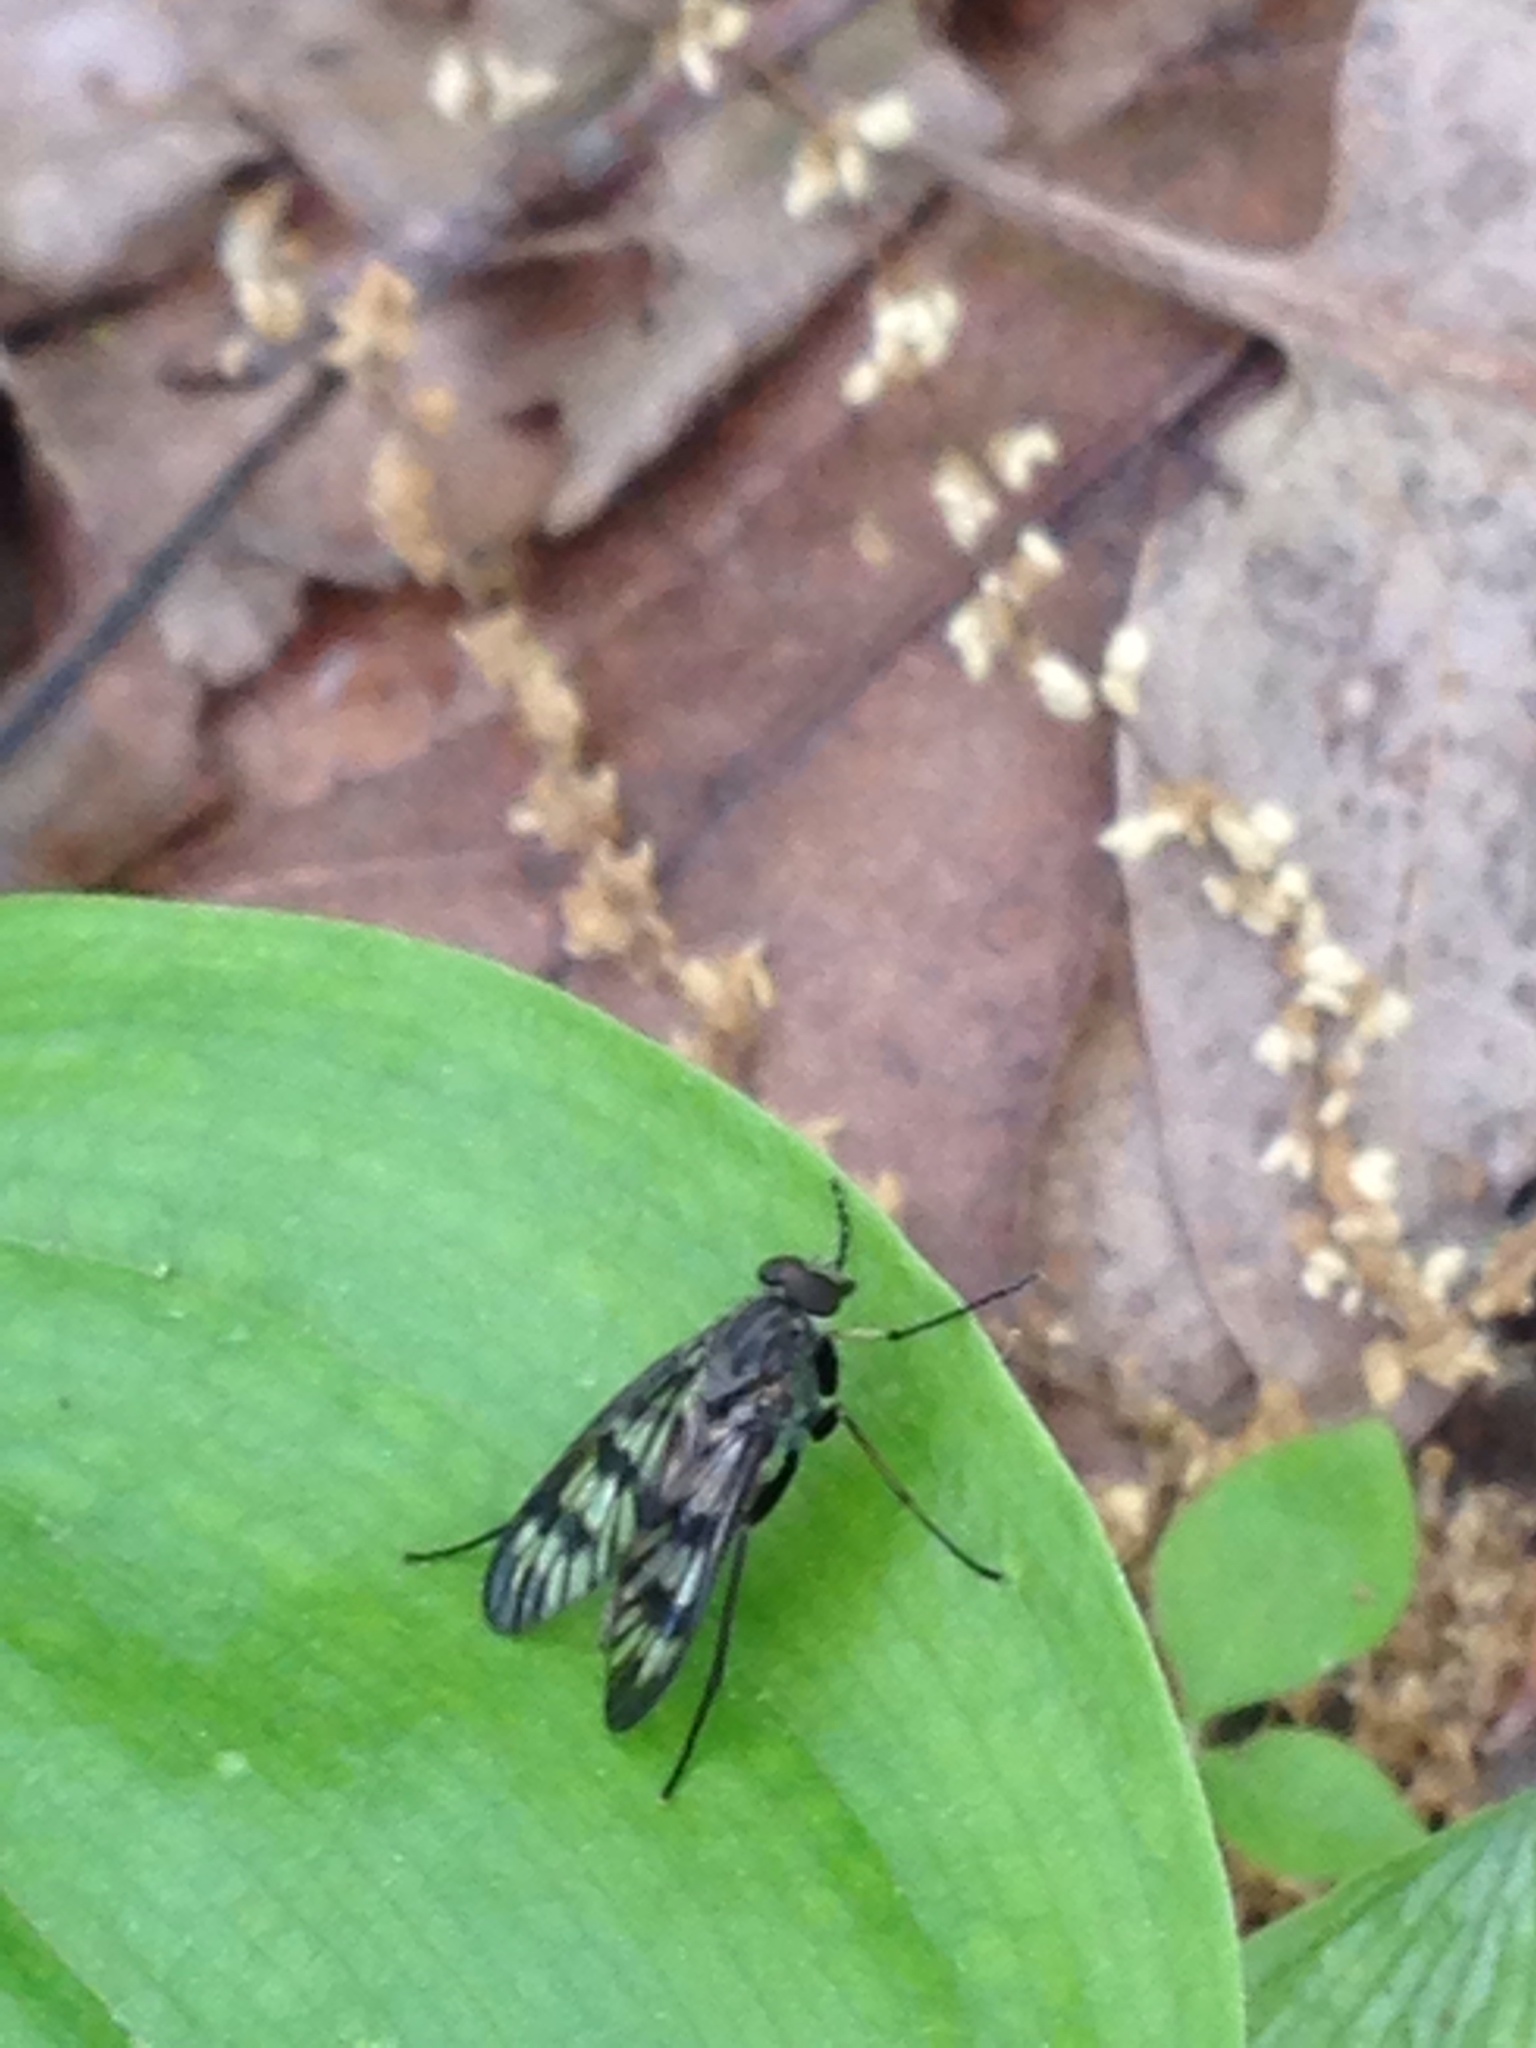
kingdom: Animalia
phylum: Arthropoda
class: Insecta
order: Diptera
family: Rhagionidae
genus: Rhagio
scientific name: Rhagio mystaceus
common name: Common snipe fly
